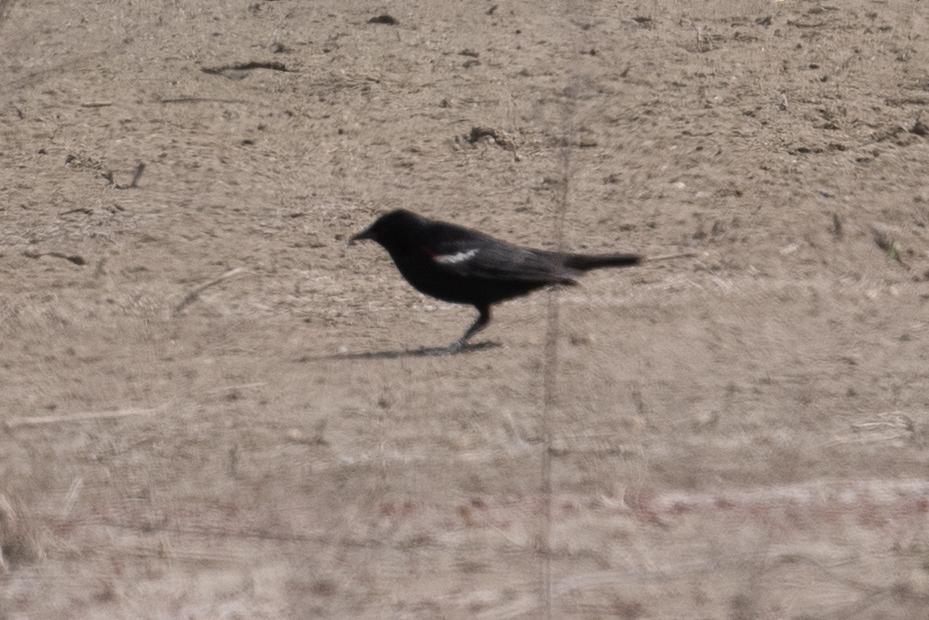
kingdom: Animalia
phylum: Chordata
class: Aves
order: Passeriformes
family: Icteridae
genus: Agelaius
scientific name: Agelaius tricolor
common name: Tricolored blackbird
